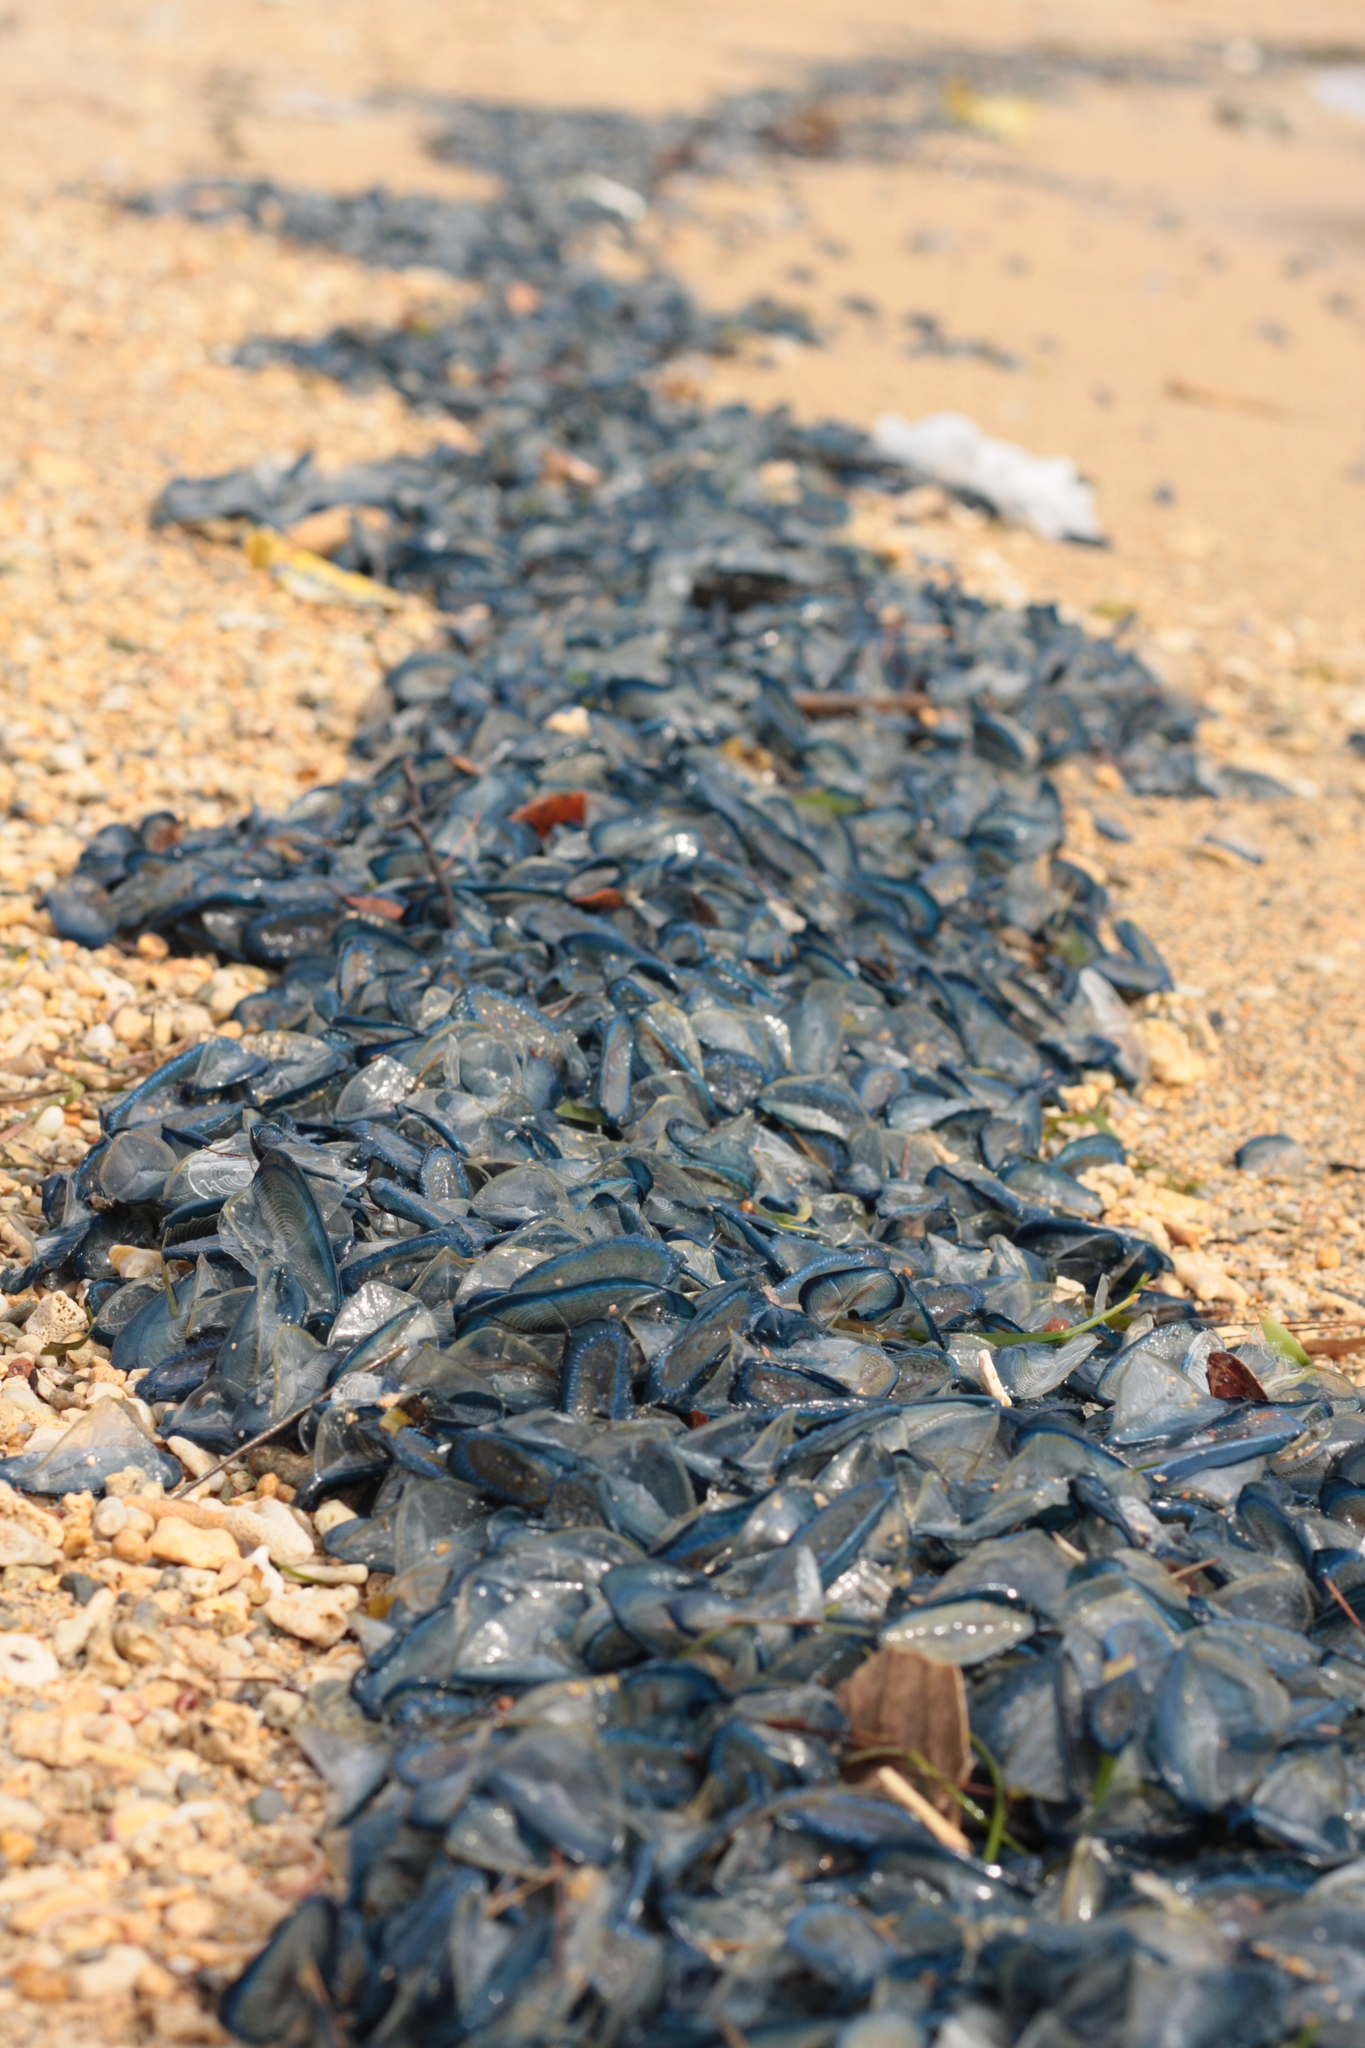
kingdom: Animalia
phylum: Cnidaria
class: Hydrozoa
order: Anthoathecata
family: Porpitidae
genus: Velella
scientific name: Velella velella
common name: By-the-wind-sailor
